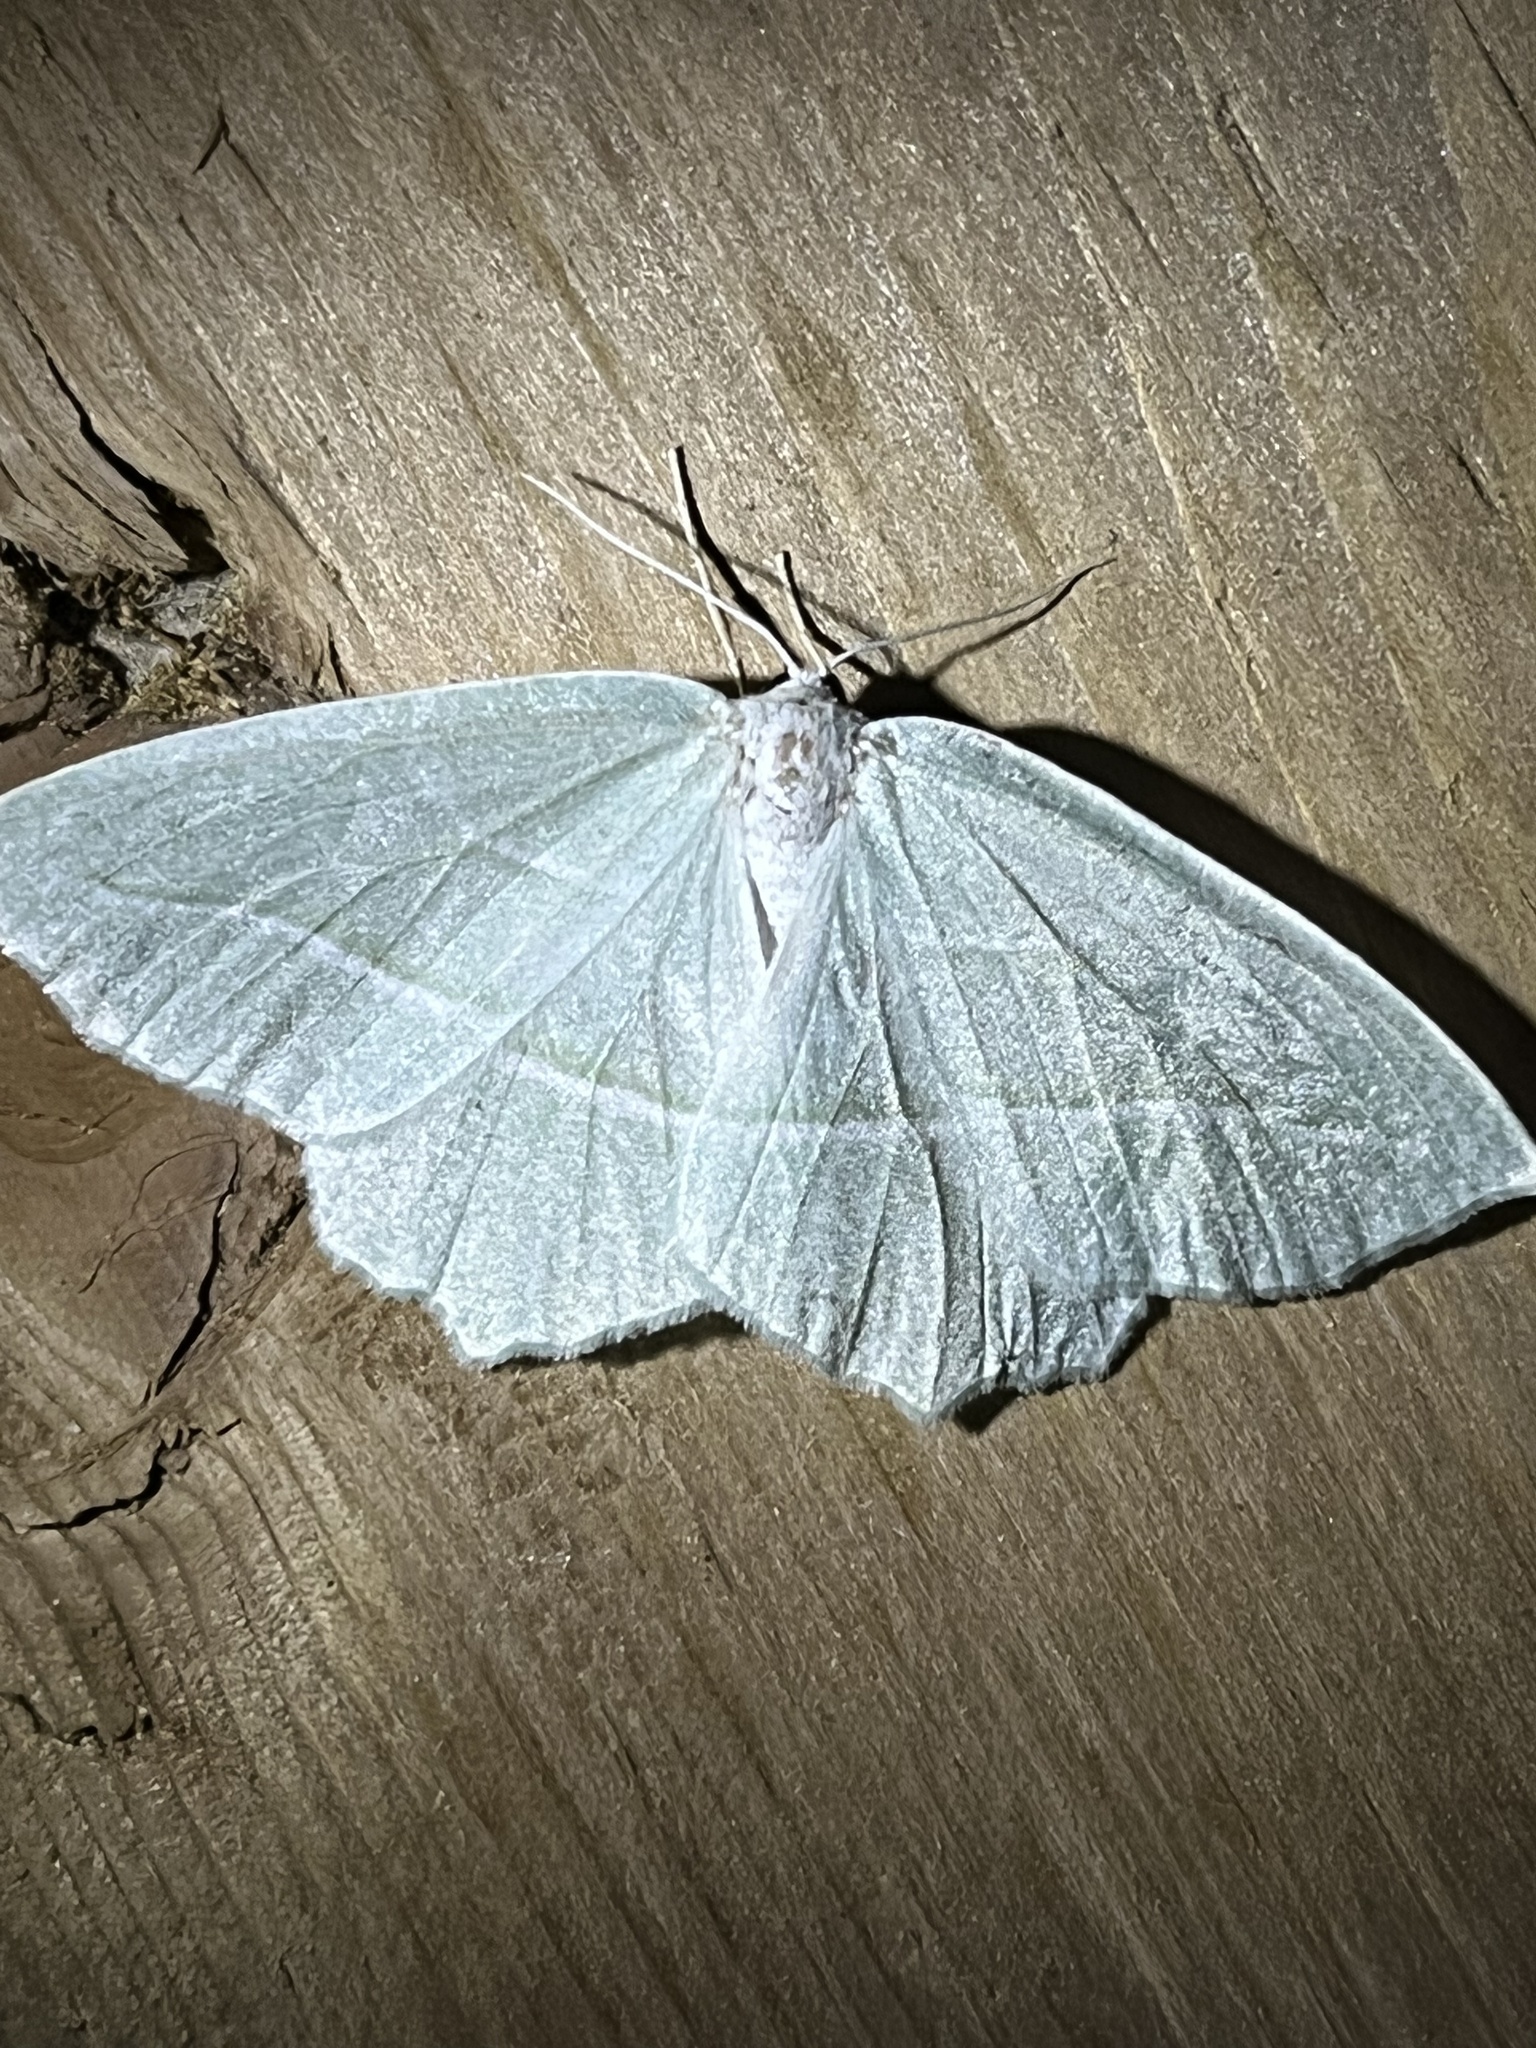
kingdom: Animalia
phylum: Arthropoda
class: Insecta
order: Lepidoptera
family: Geometridae
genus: Campaea
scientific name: Campaea perlata
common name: Fringed looper
